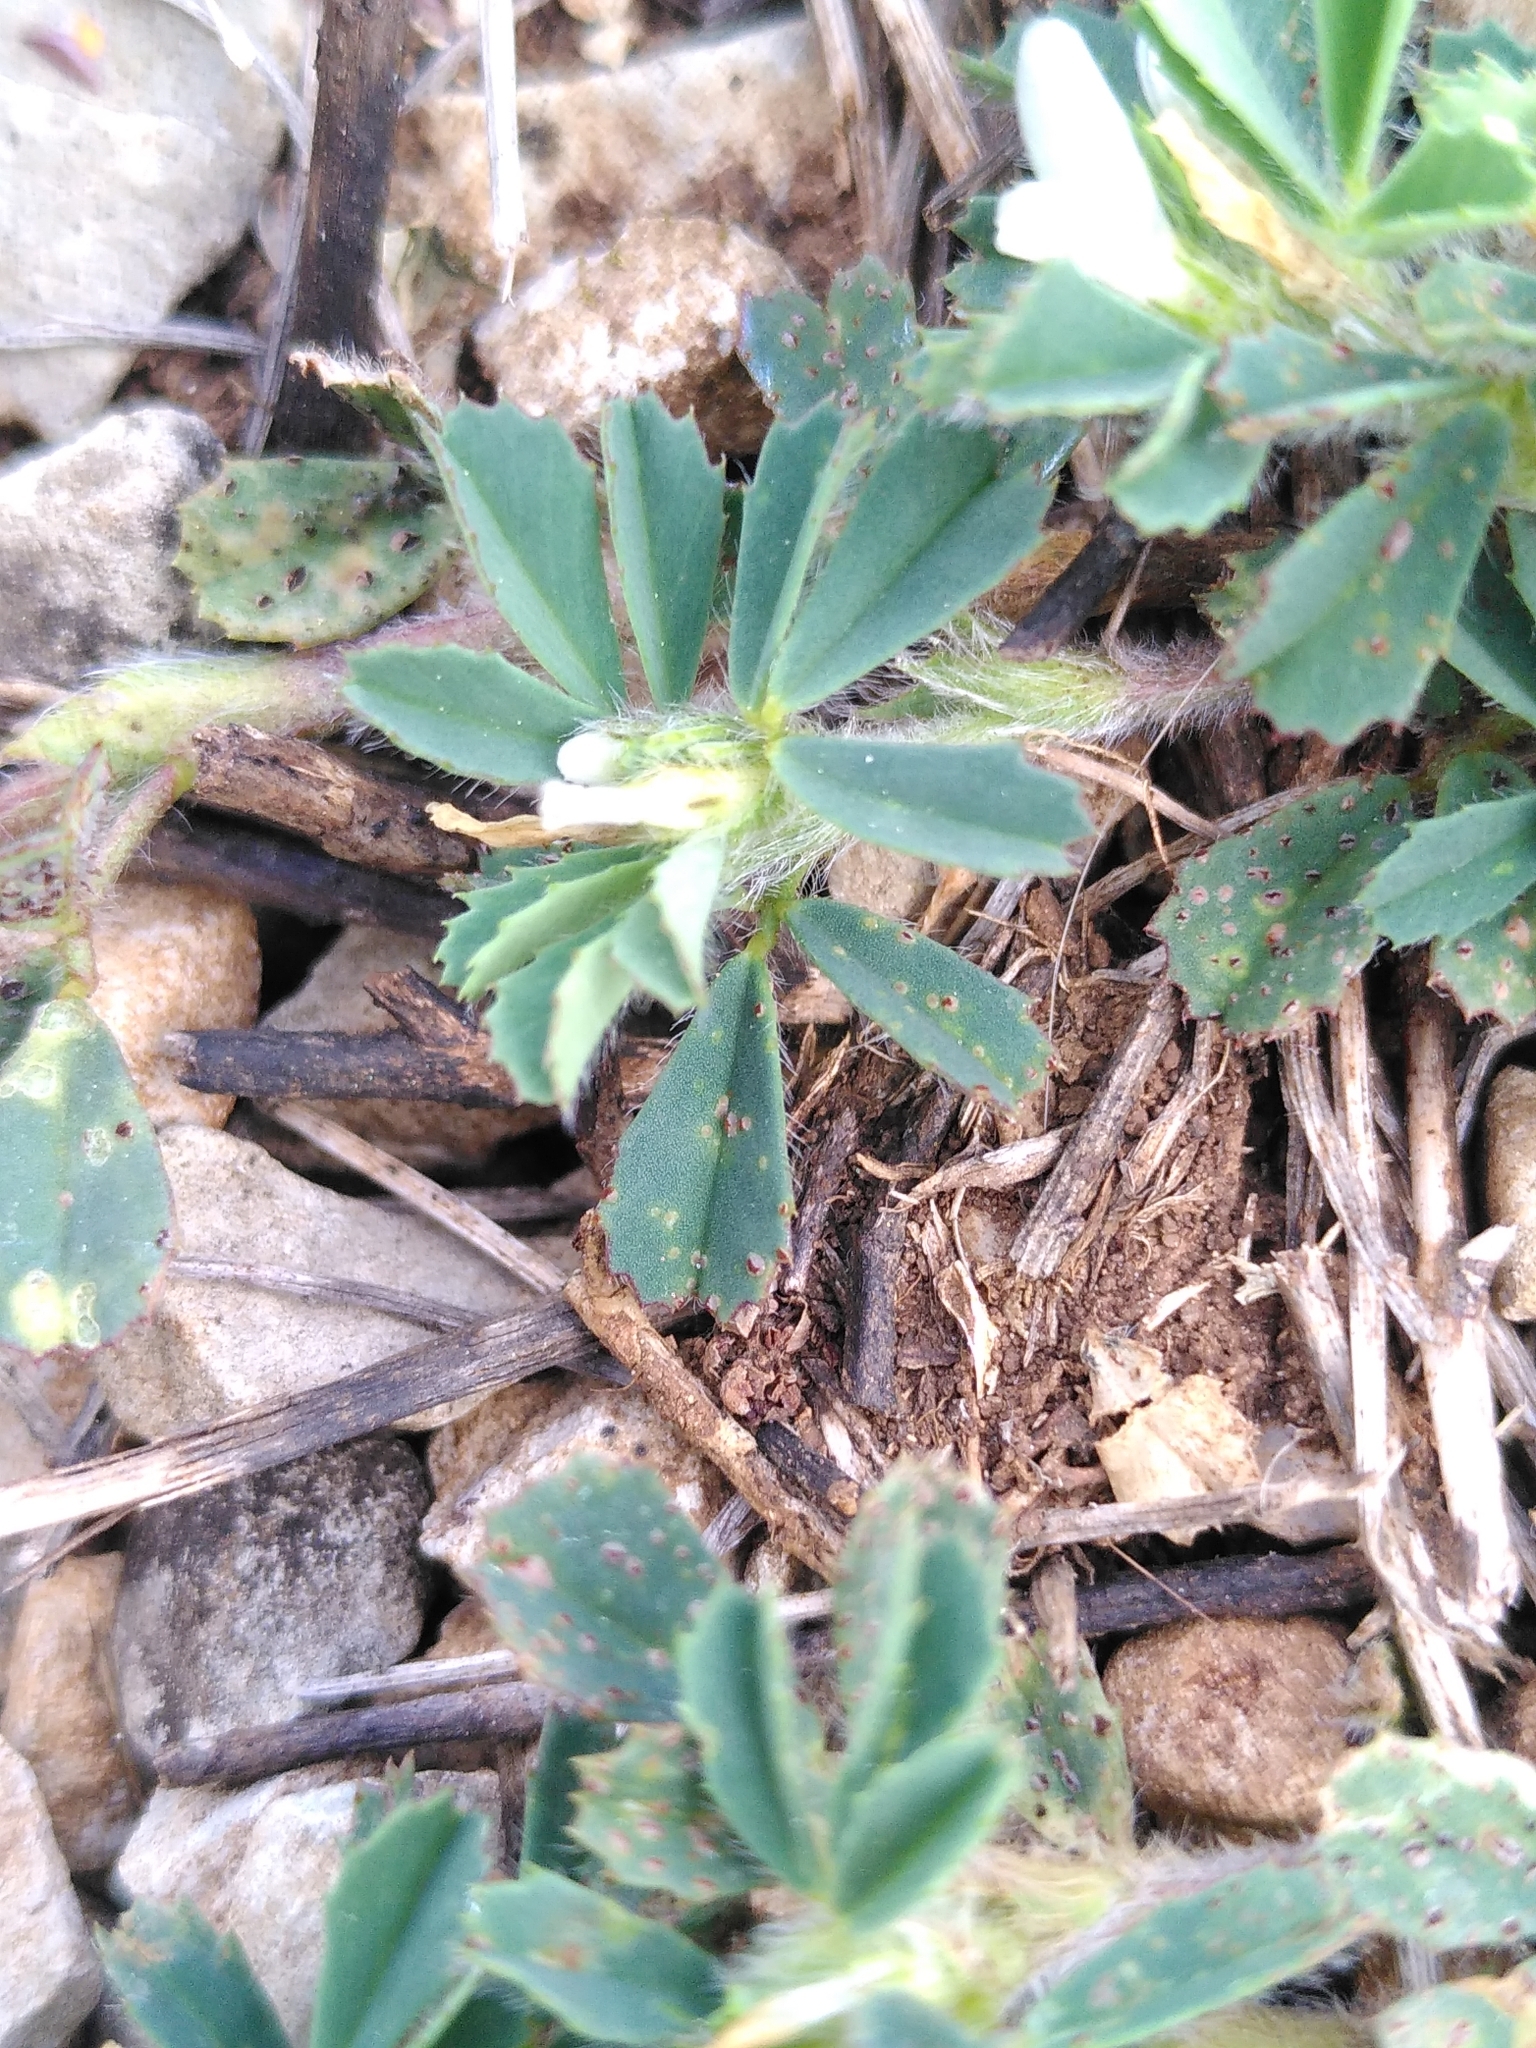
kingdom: Plantae
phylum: Tracheophyta
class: Magnoliopsida
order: Fabales
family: Fabaceae
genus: Trigonella
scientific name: Trigonella gladiata
